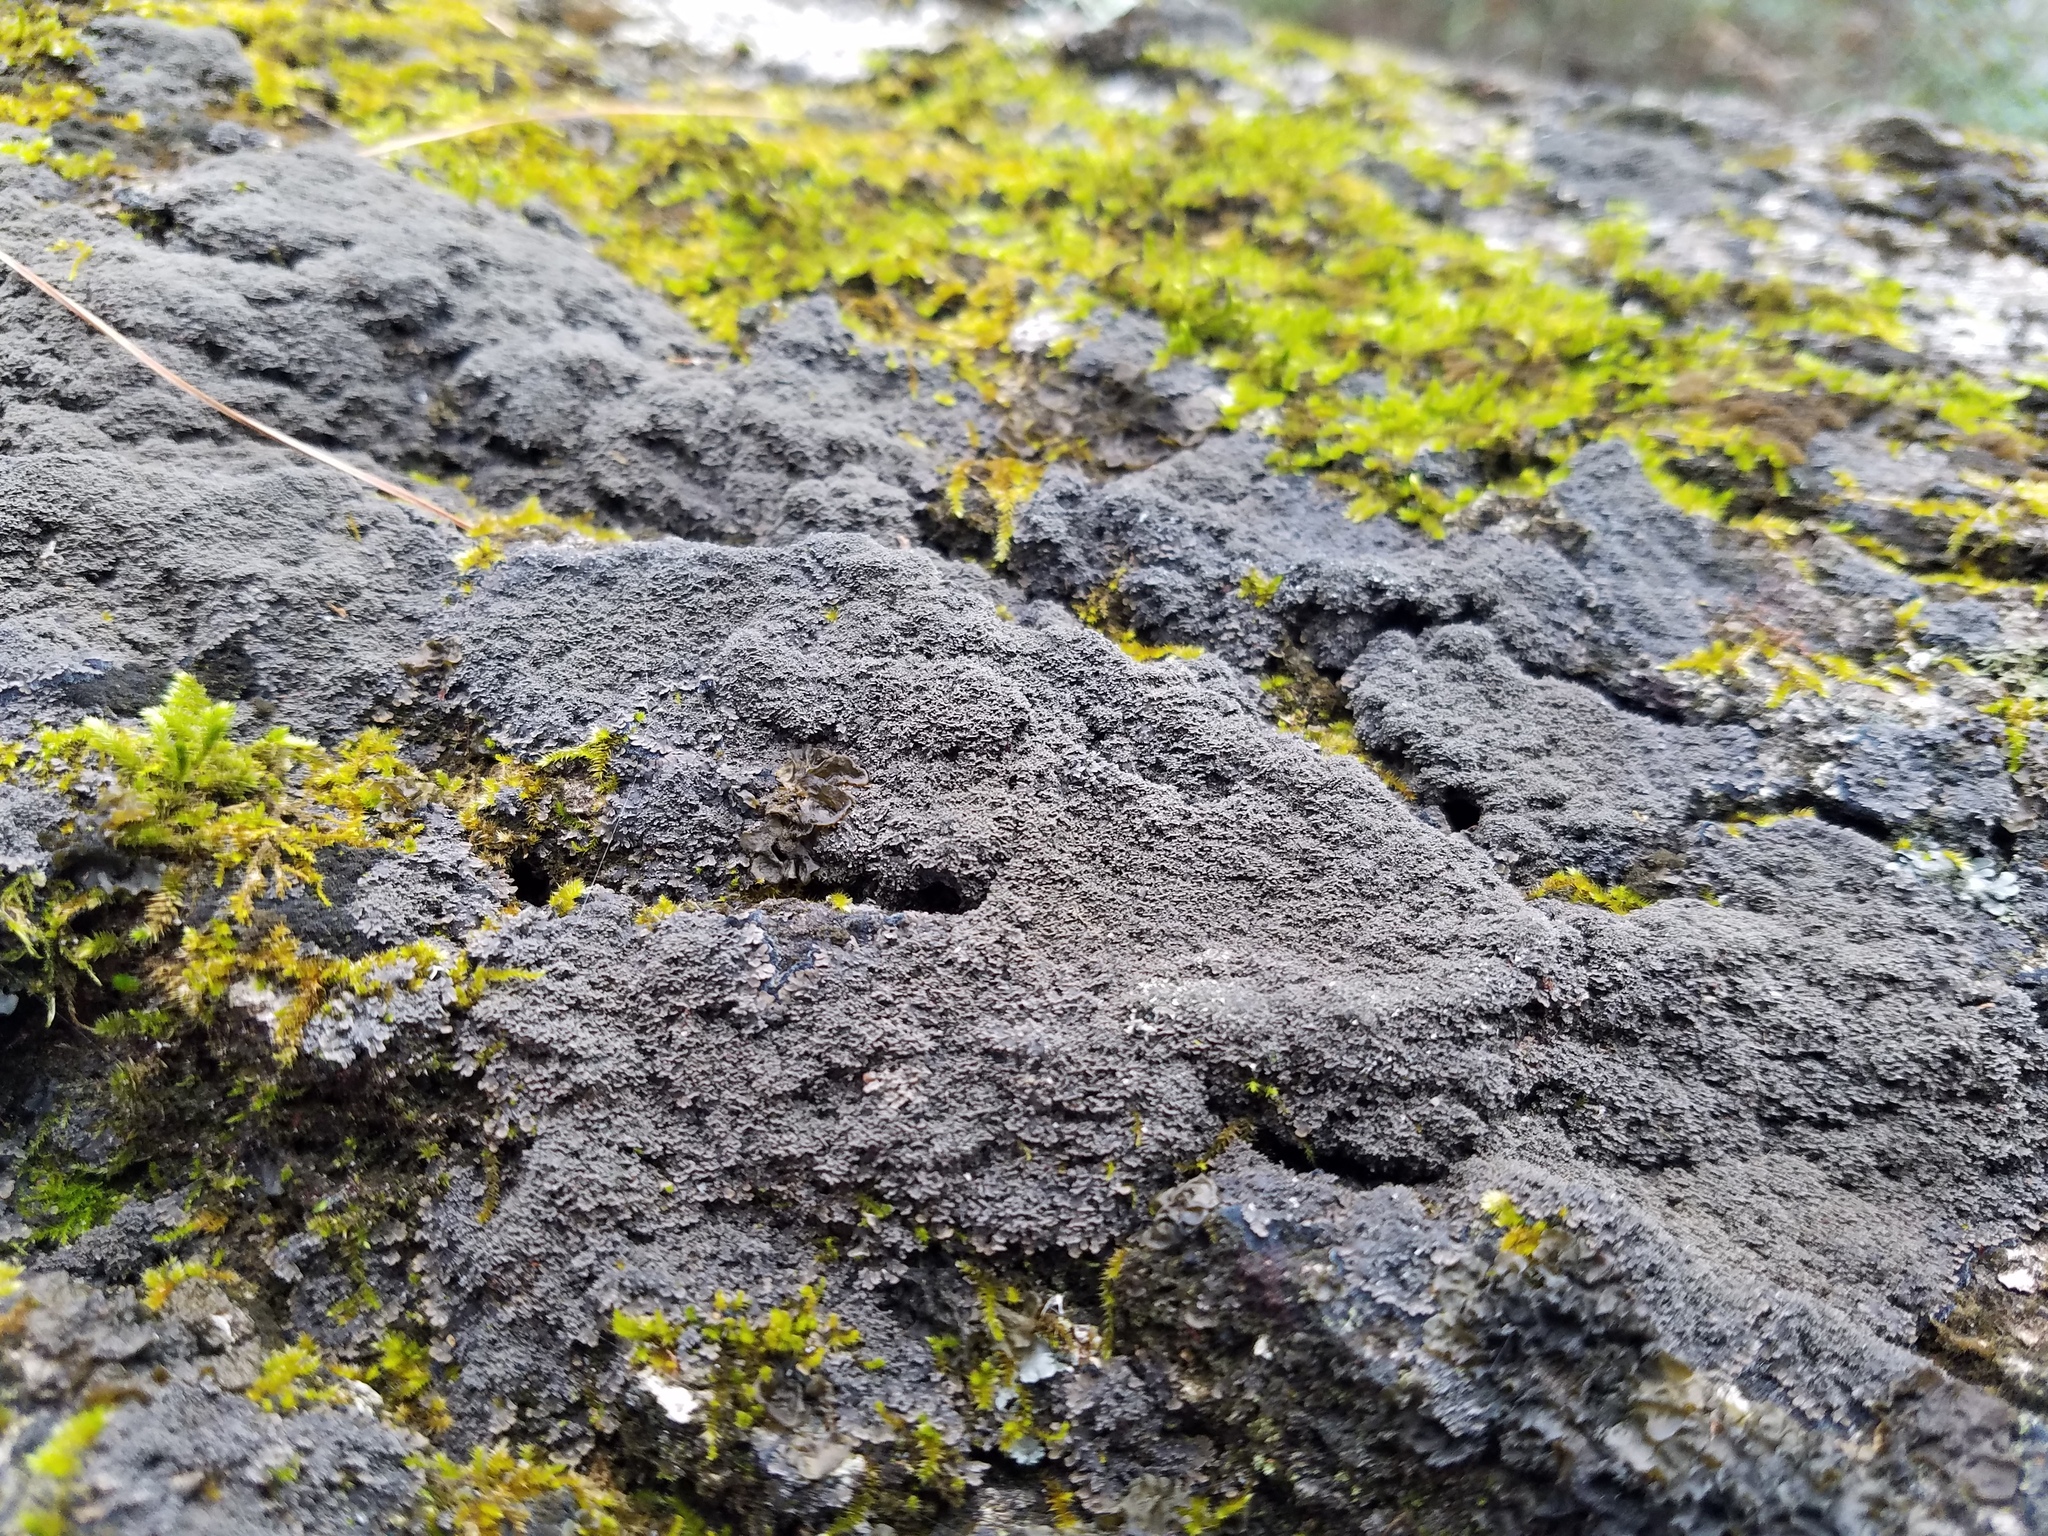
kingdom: Fungi
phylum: Ascomycota
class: Lecanoromycetes
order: Peltigerales
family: Pannariaceae
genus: Parmeliella
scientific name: Parmeliella appalachensis
